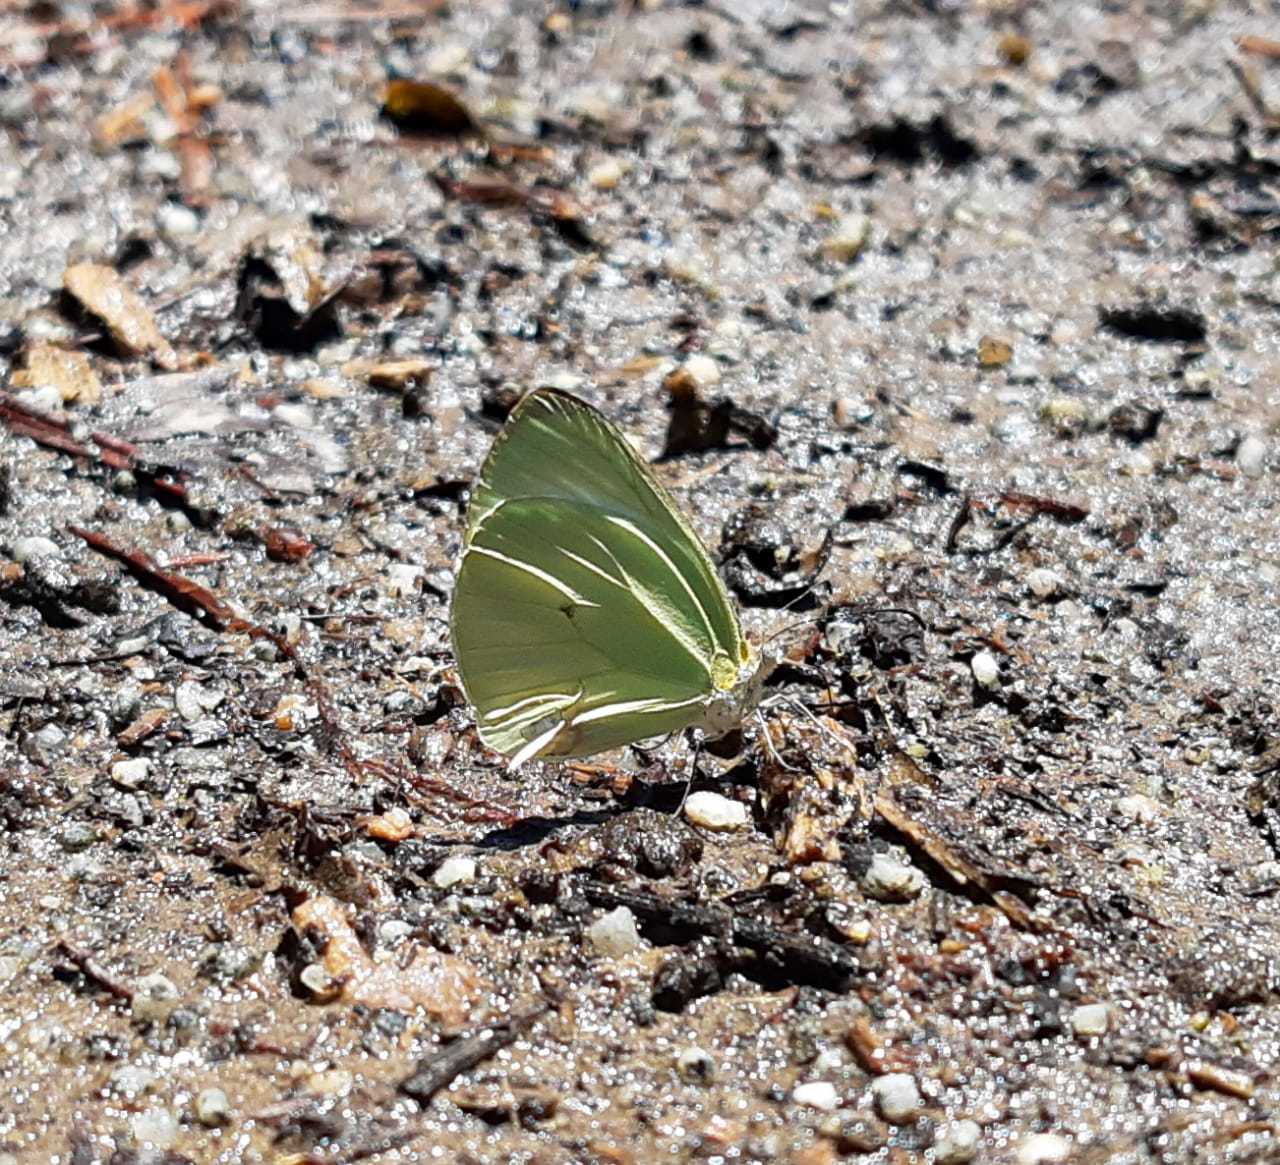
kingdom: Animalia
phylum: Arthropoda
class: Insecta
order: Lepidoptera
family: Pieridae
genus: Pseudopieris
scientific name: Pseudopieris nehemia
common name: Clean mimic-white
